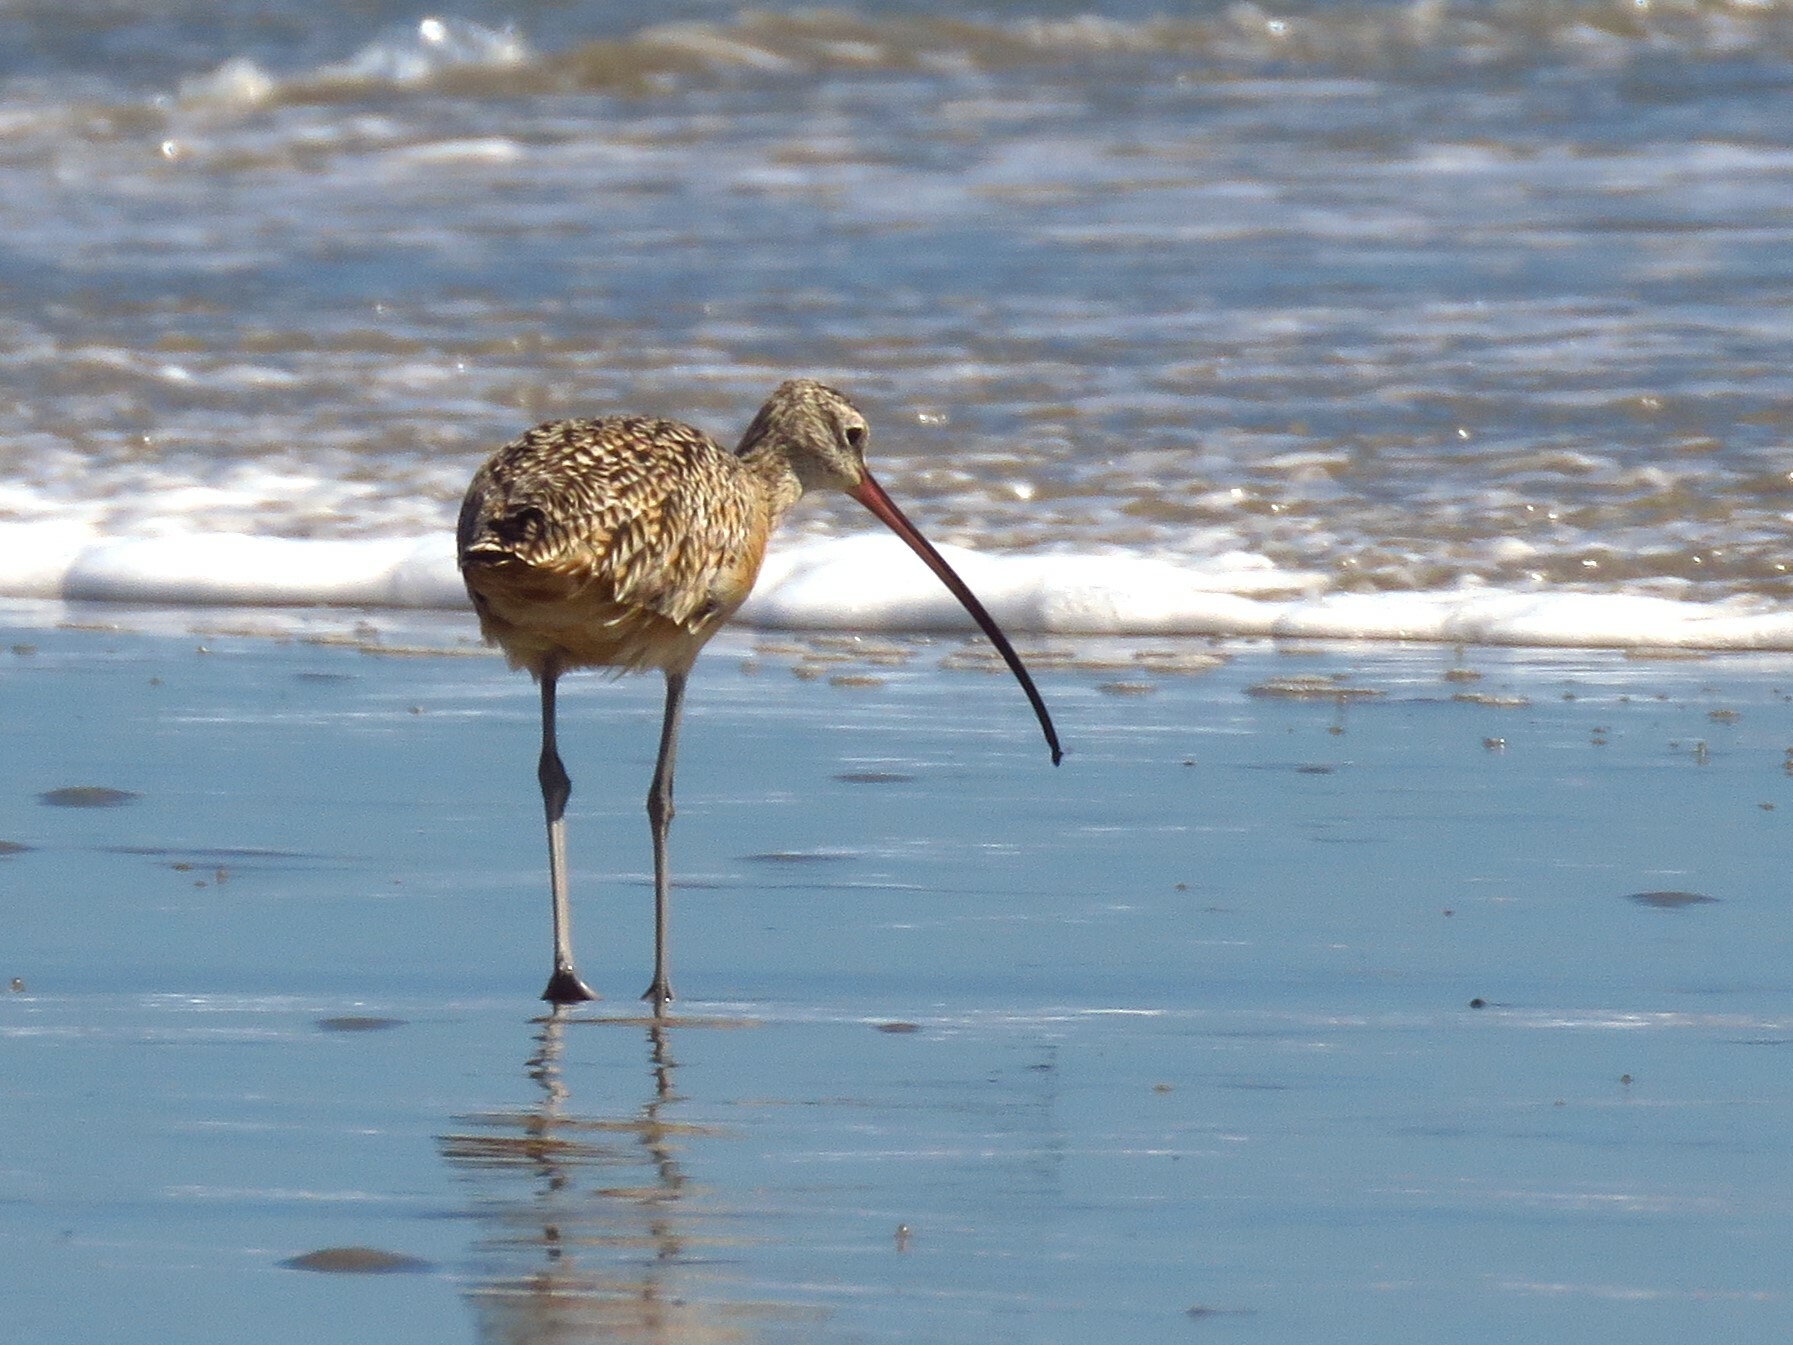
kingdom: Animalia
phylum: Chordata
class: Aves
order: Charadriiformes
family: Scolopacidae
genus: Numenius
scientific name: Numenius americanus
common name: Long-billed curlew
